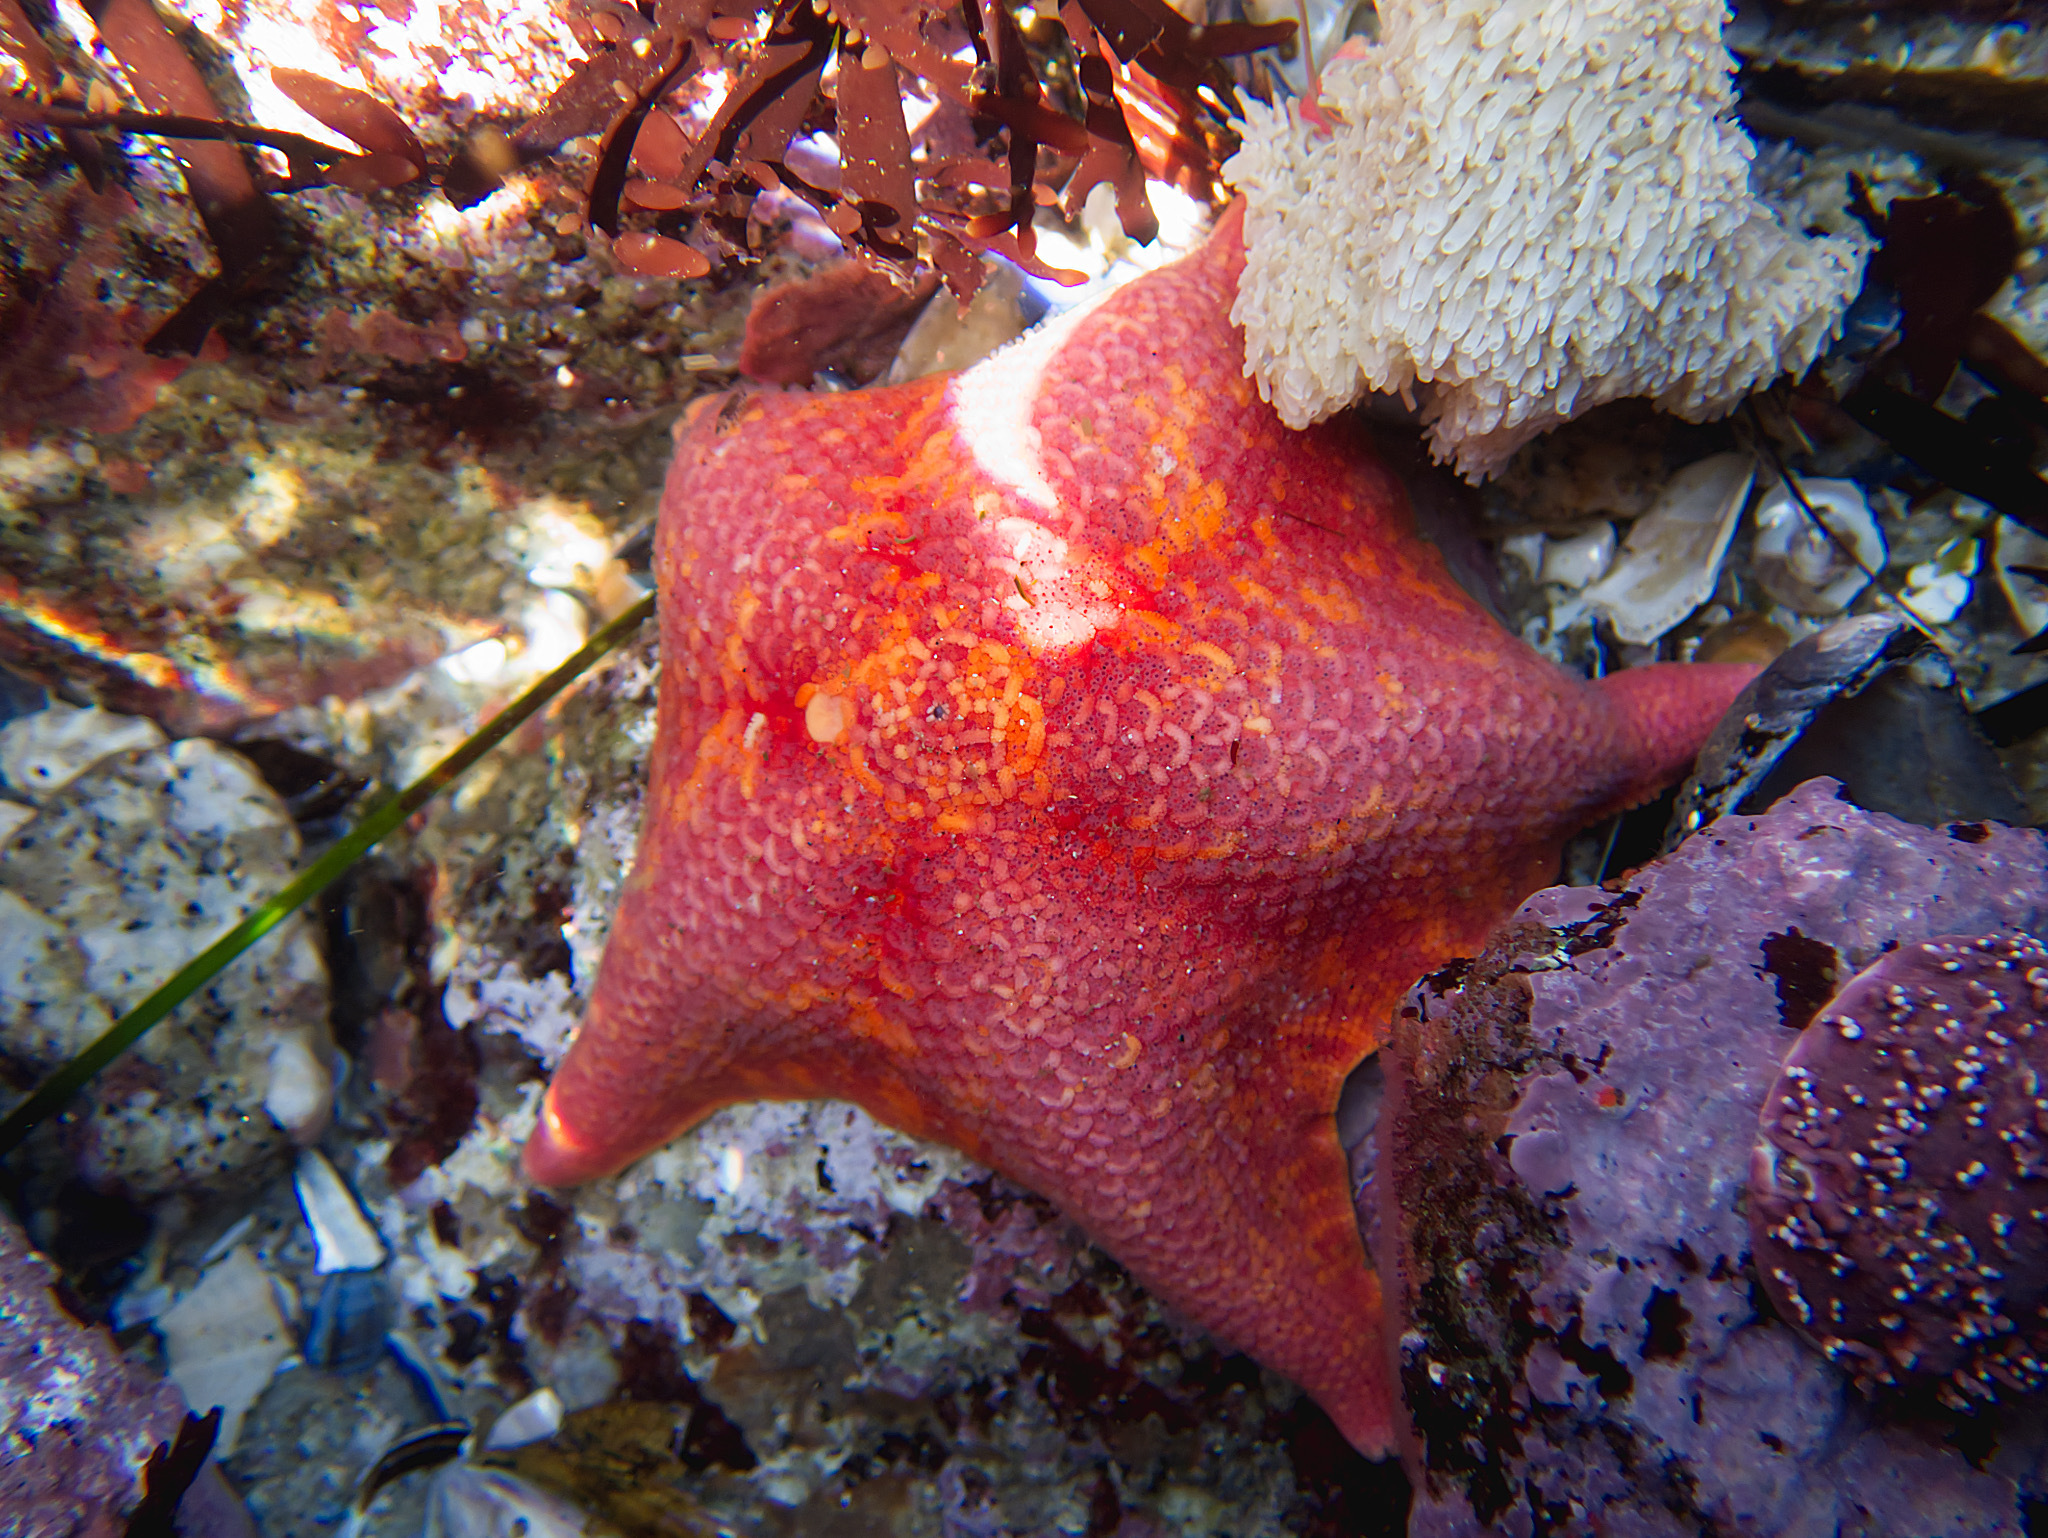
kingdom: Animalia
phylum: Echinodermata
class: Asteroidea
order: Valvatida
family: Asterinidae
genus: Patiria
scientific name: Patiria miniata
